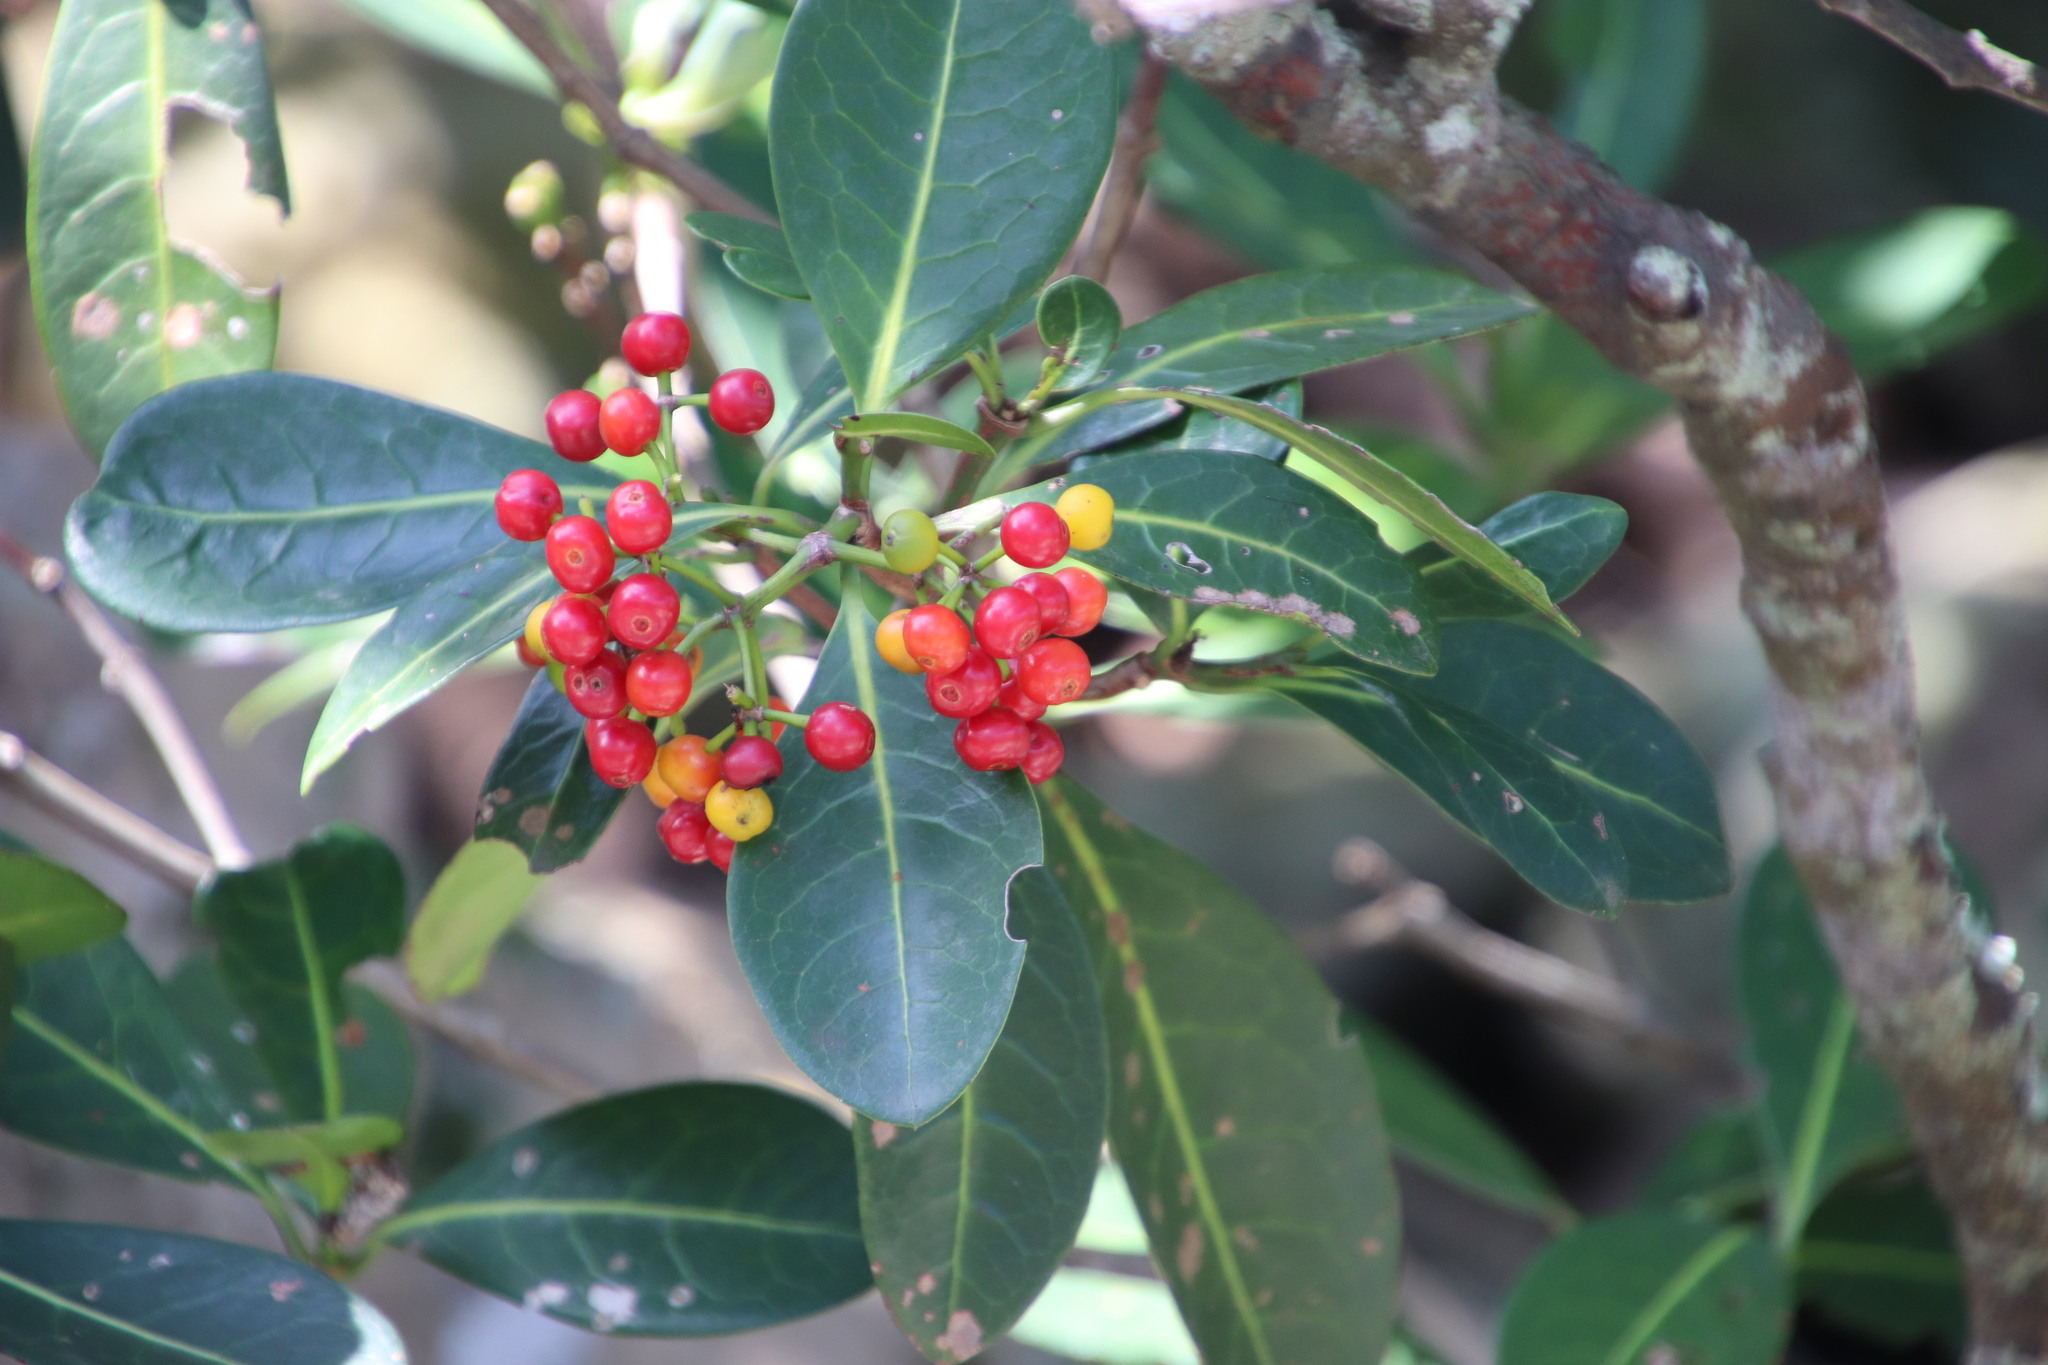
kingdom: Plantae
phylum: Tracheophyta
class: Magnoliopsida
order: Gentianales
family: Rubiaceae
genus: Psychotria
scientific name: Psychotria capensis
